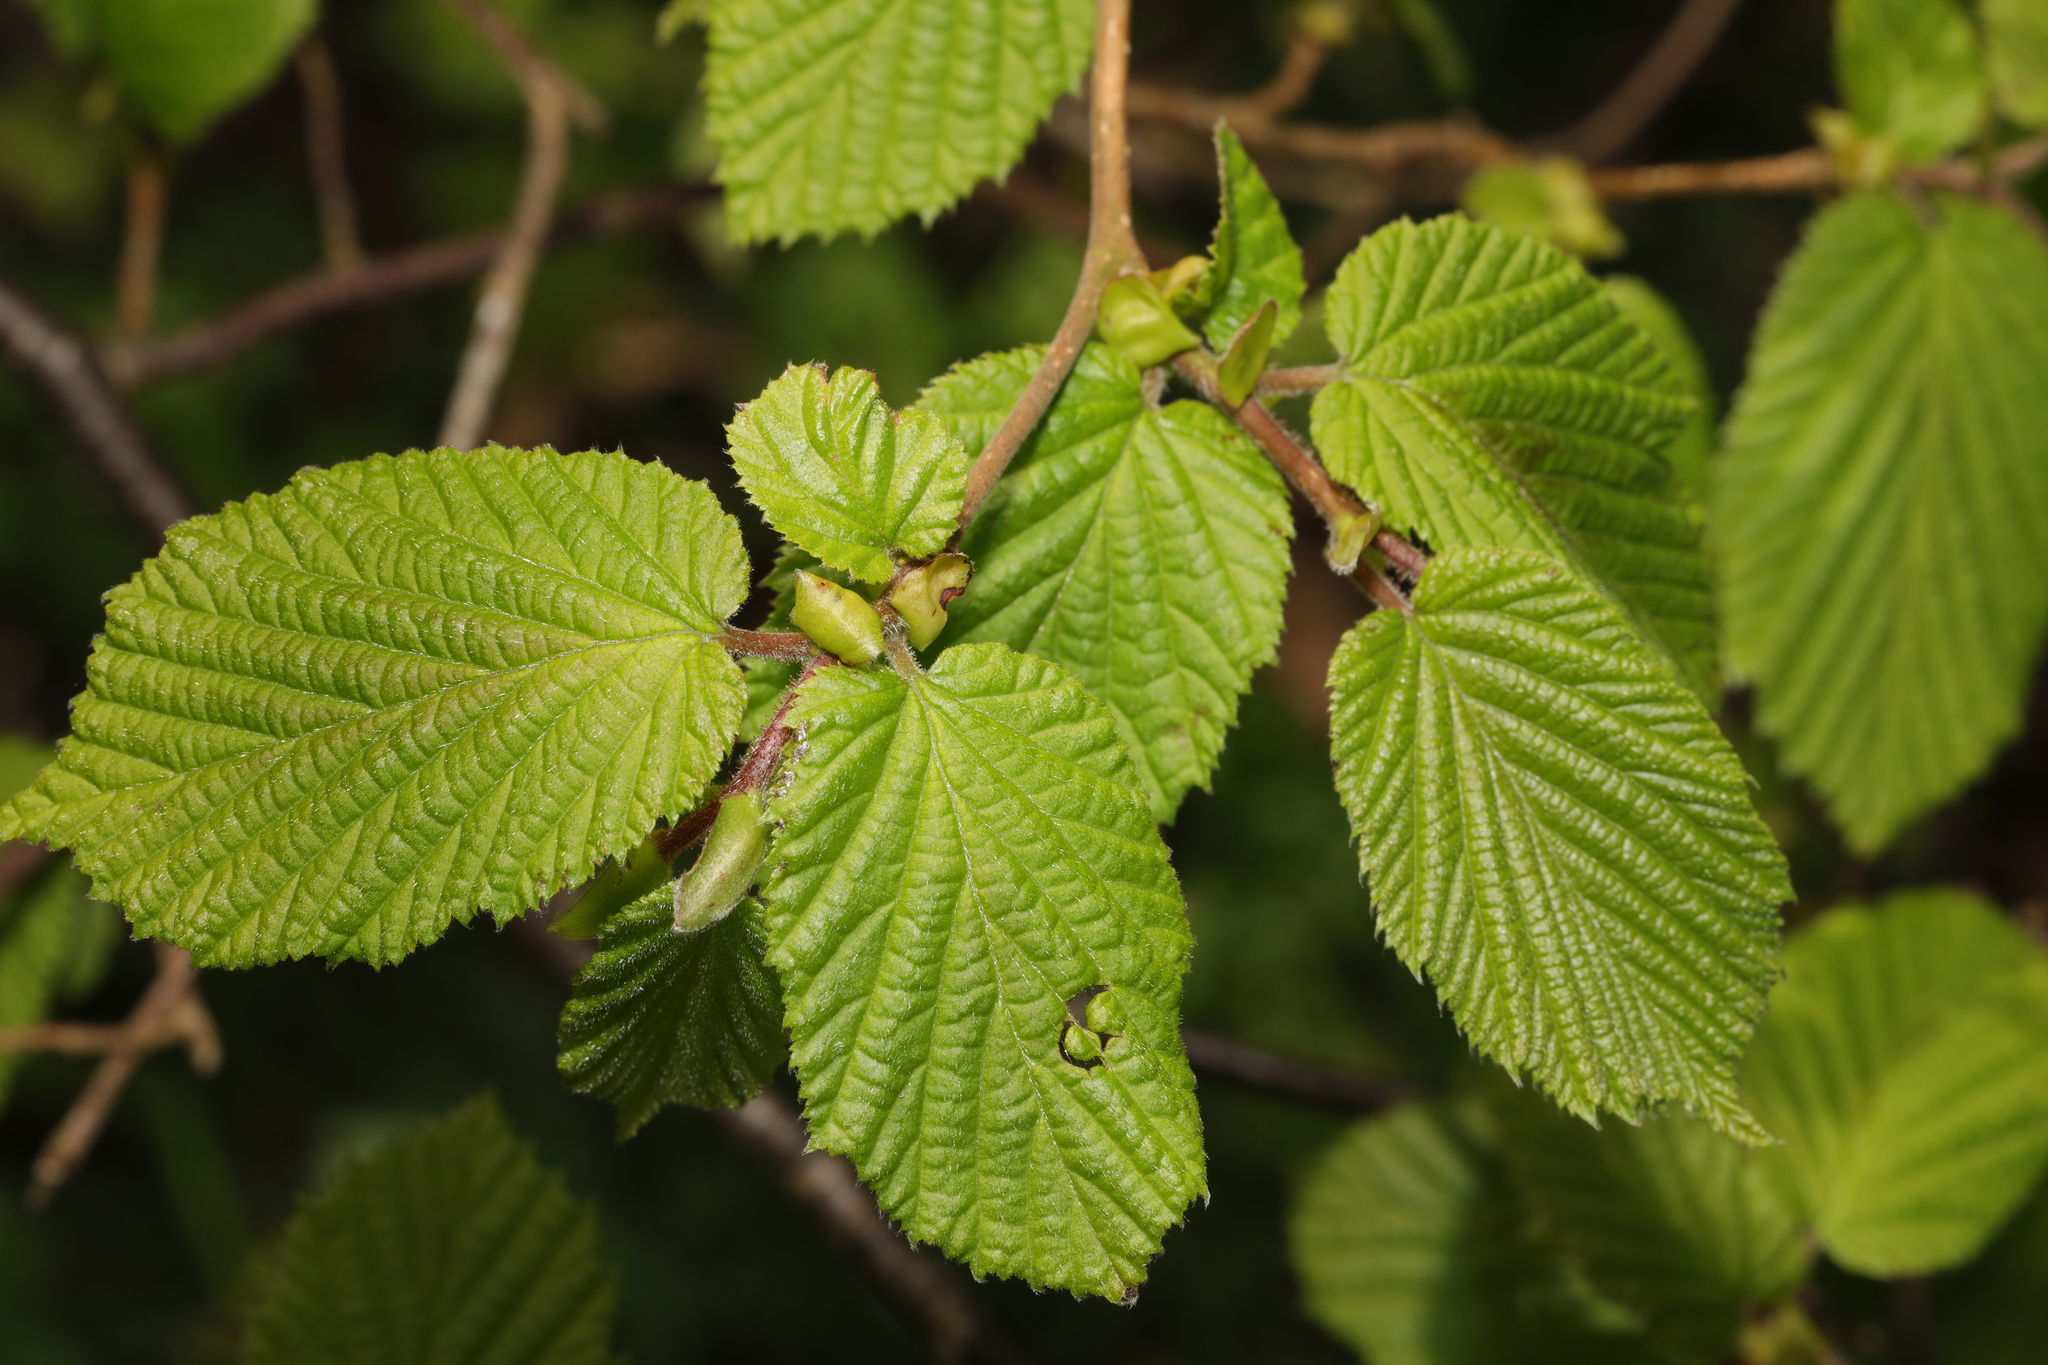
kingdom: Plantae
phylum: Tracheophyta
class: Magnoliopsida
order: Fagales
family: Betulaceae
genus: Corylus
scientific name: Corylus avellana
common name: European hazel
